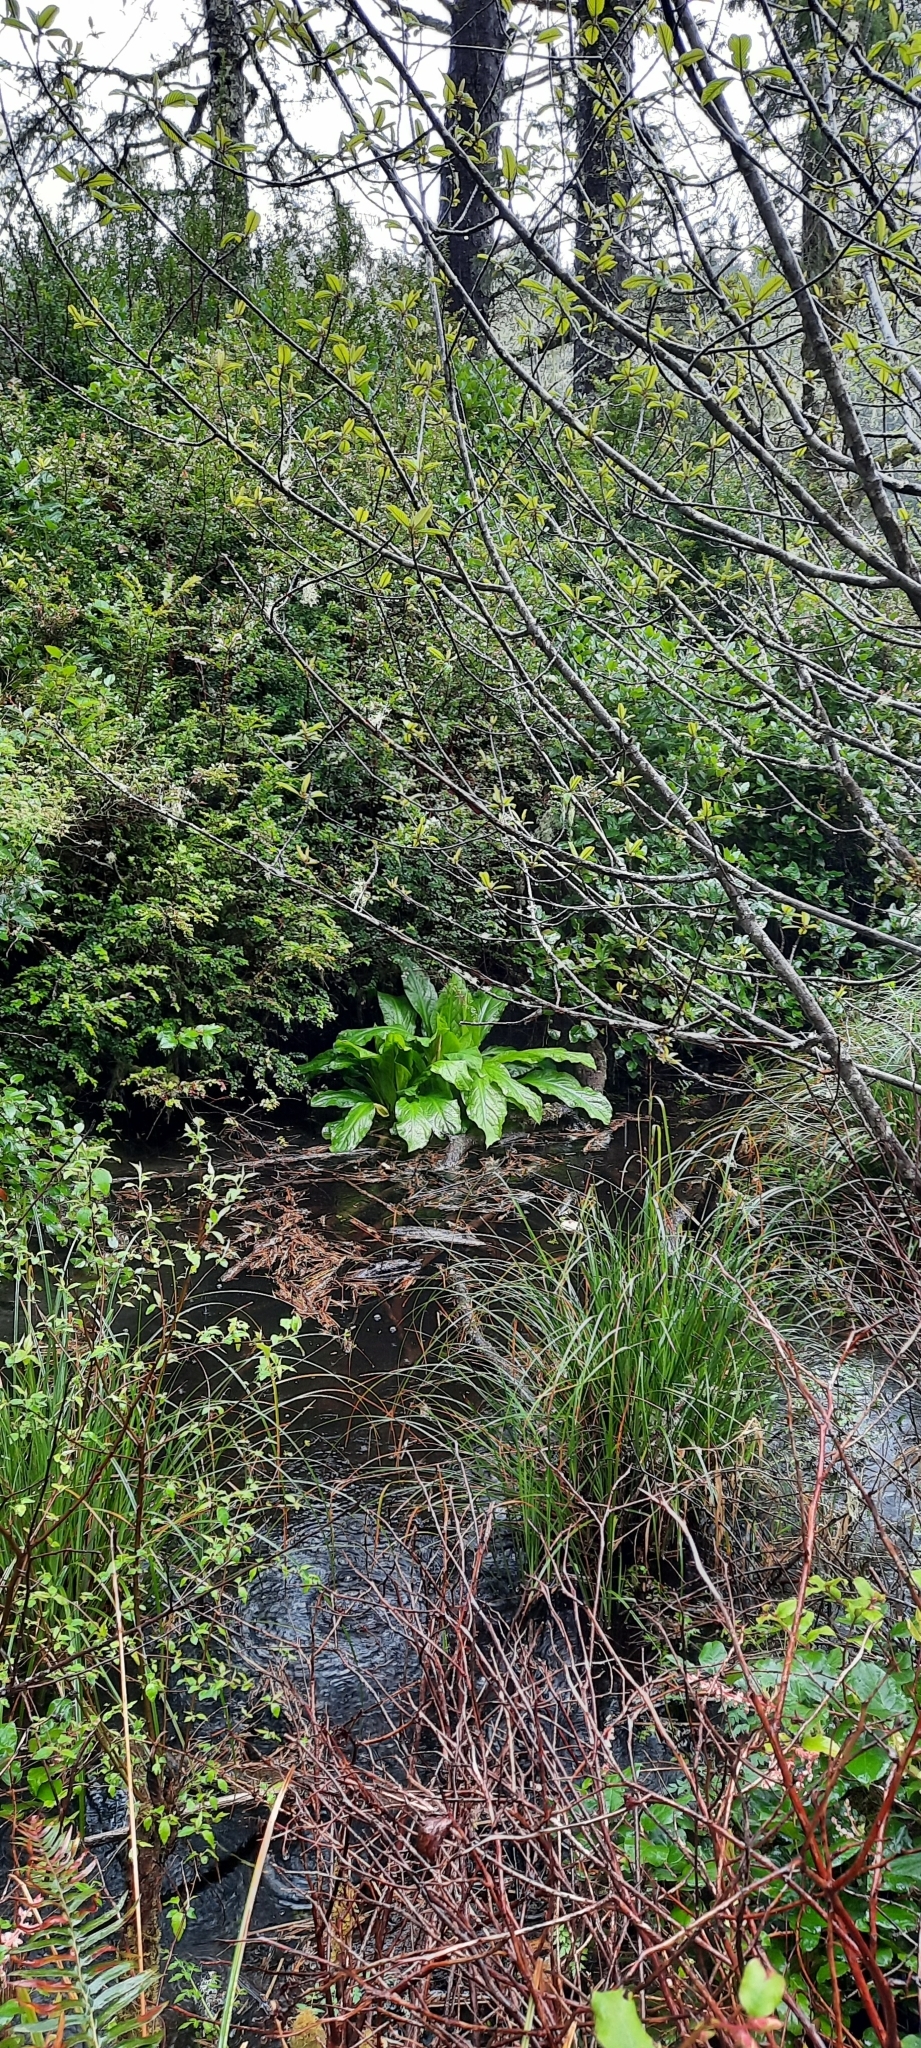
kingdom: Plantae
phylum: Tracheophyta
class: Liliopsida
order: Alismatales
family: Araceae
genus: Lysichiton
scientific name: Lysichiton americanus
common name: American skunk cabbage
